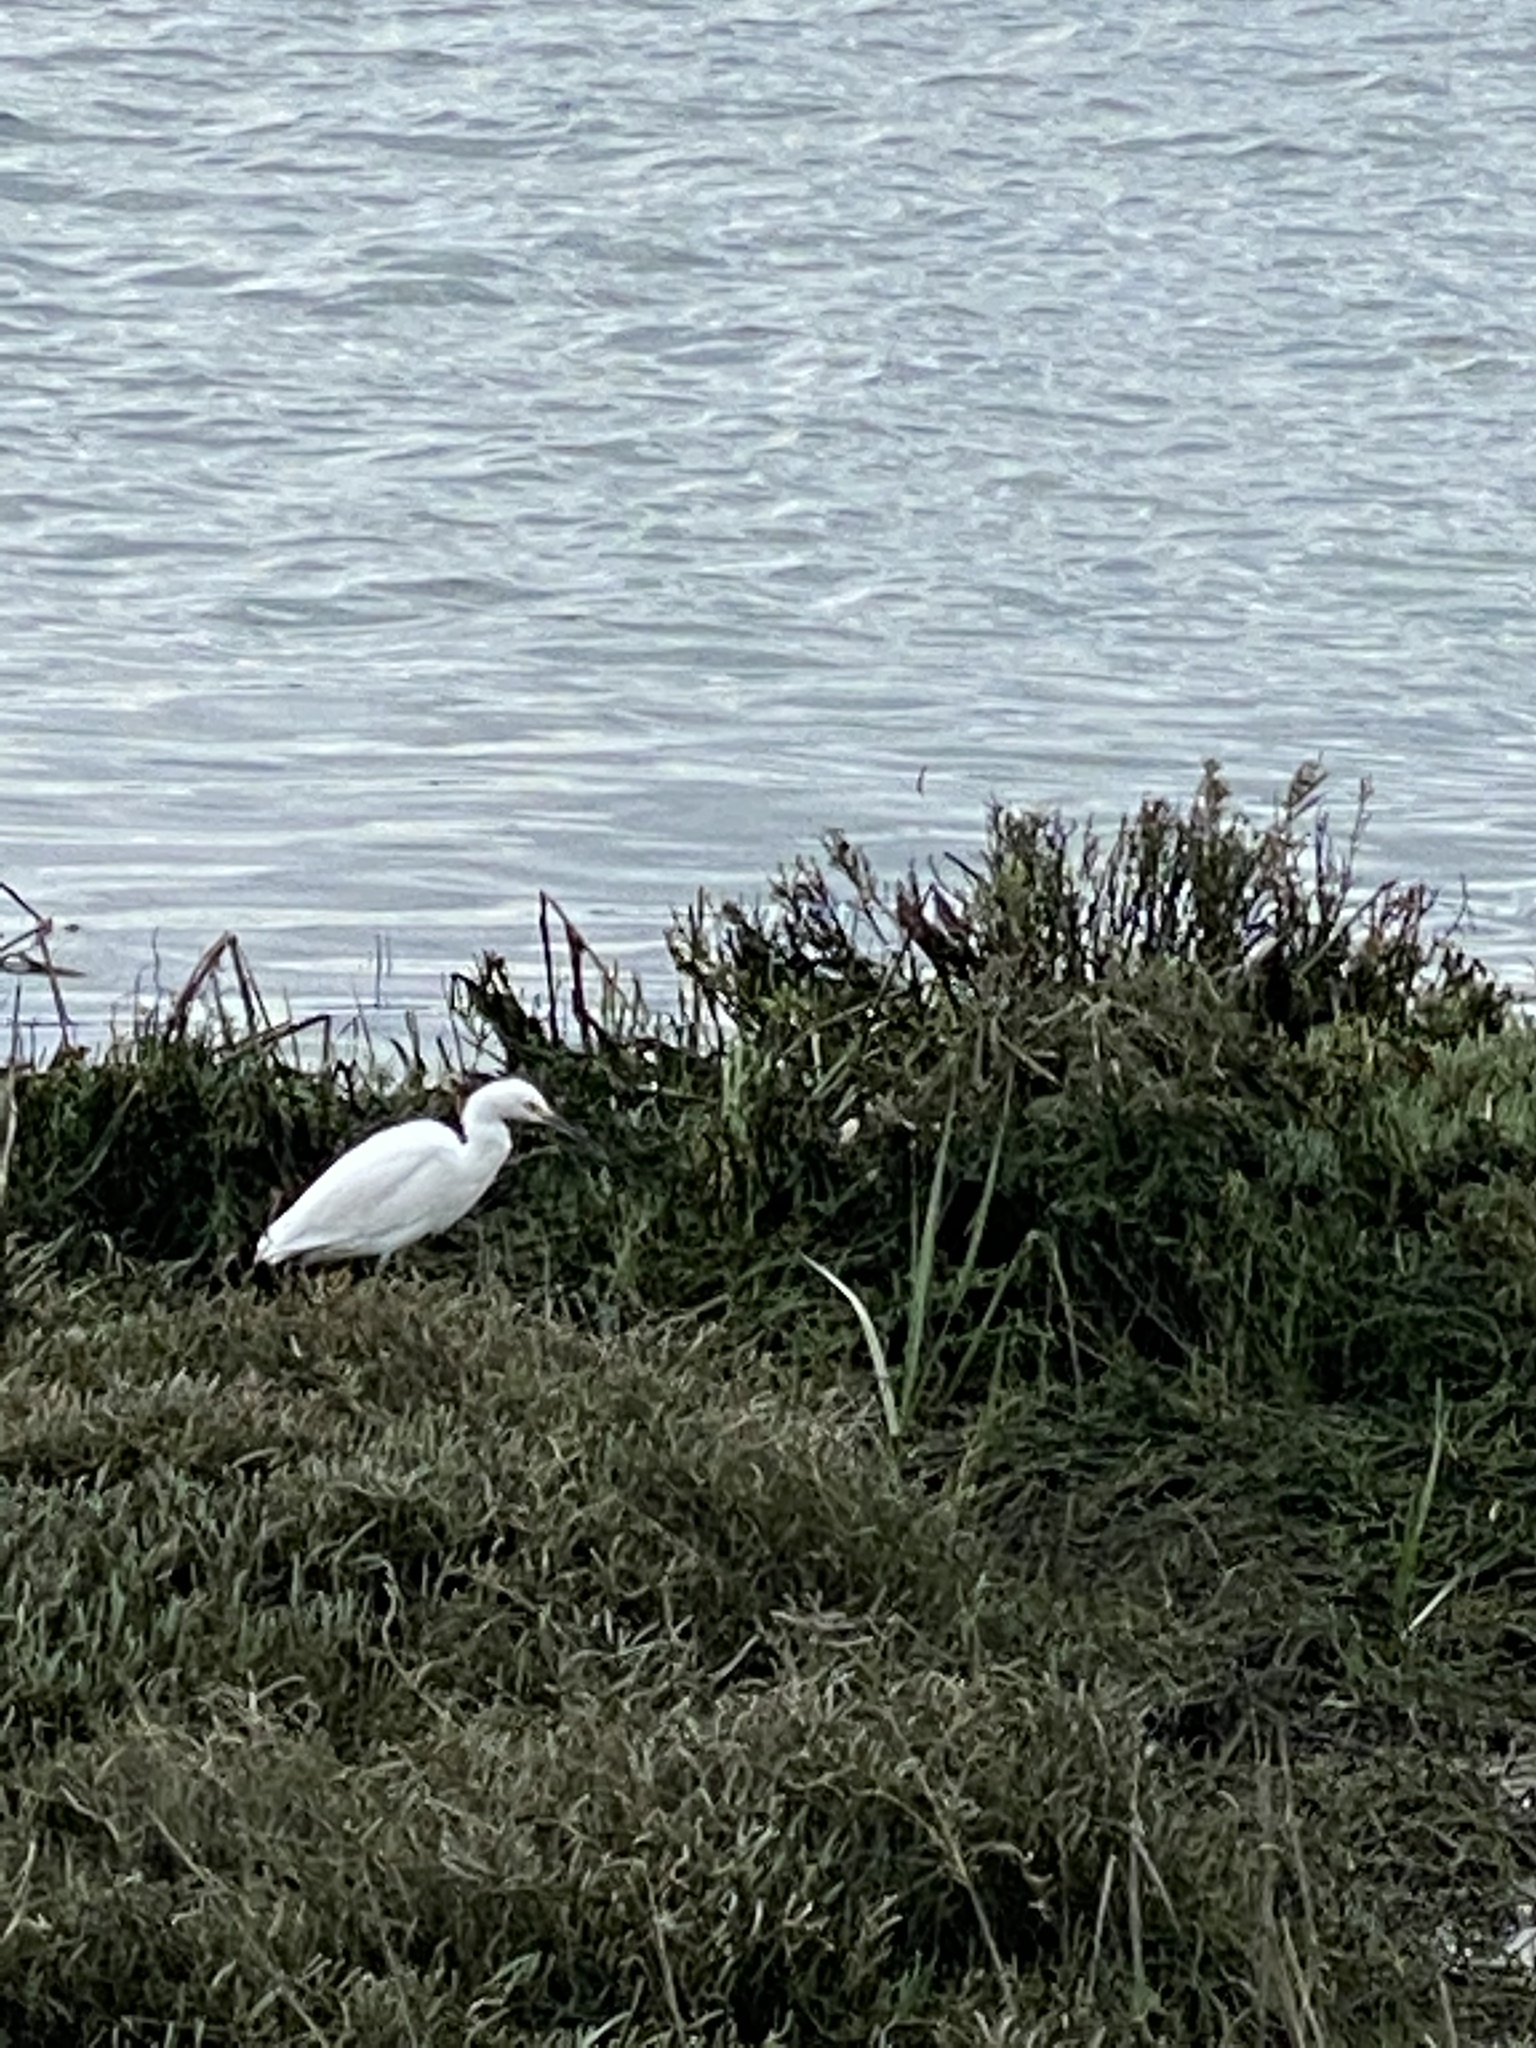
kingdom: Animalia
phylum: Chordata
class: Aves
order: Pelecaniformes
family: Ardeidae
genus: Egretta
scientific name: Egretta thula
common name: Snowy egret
